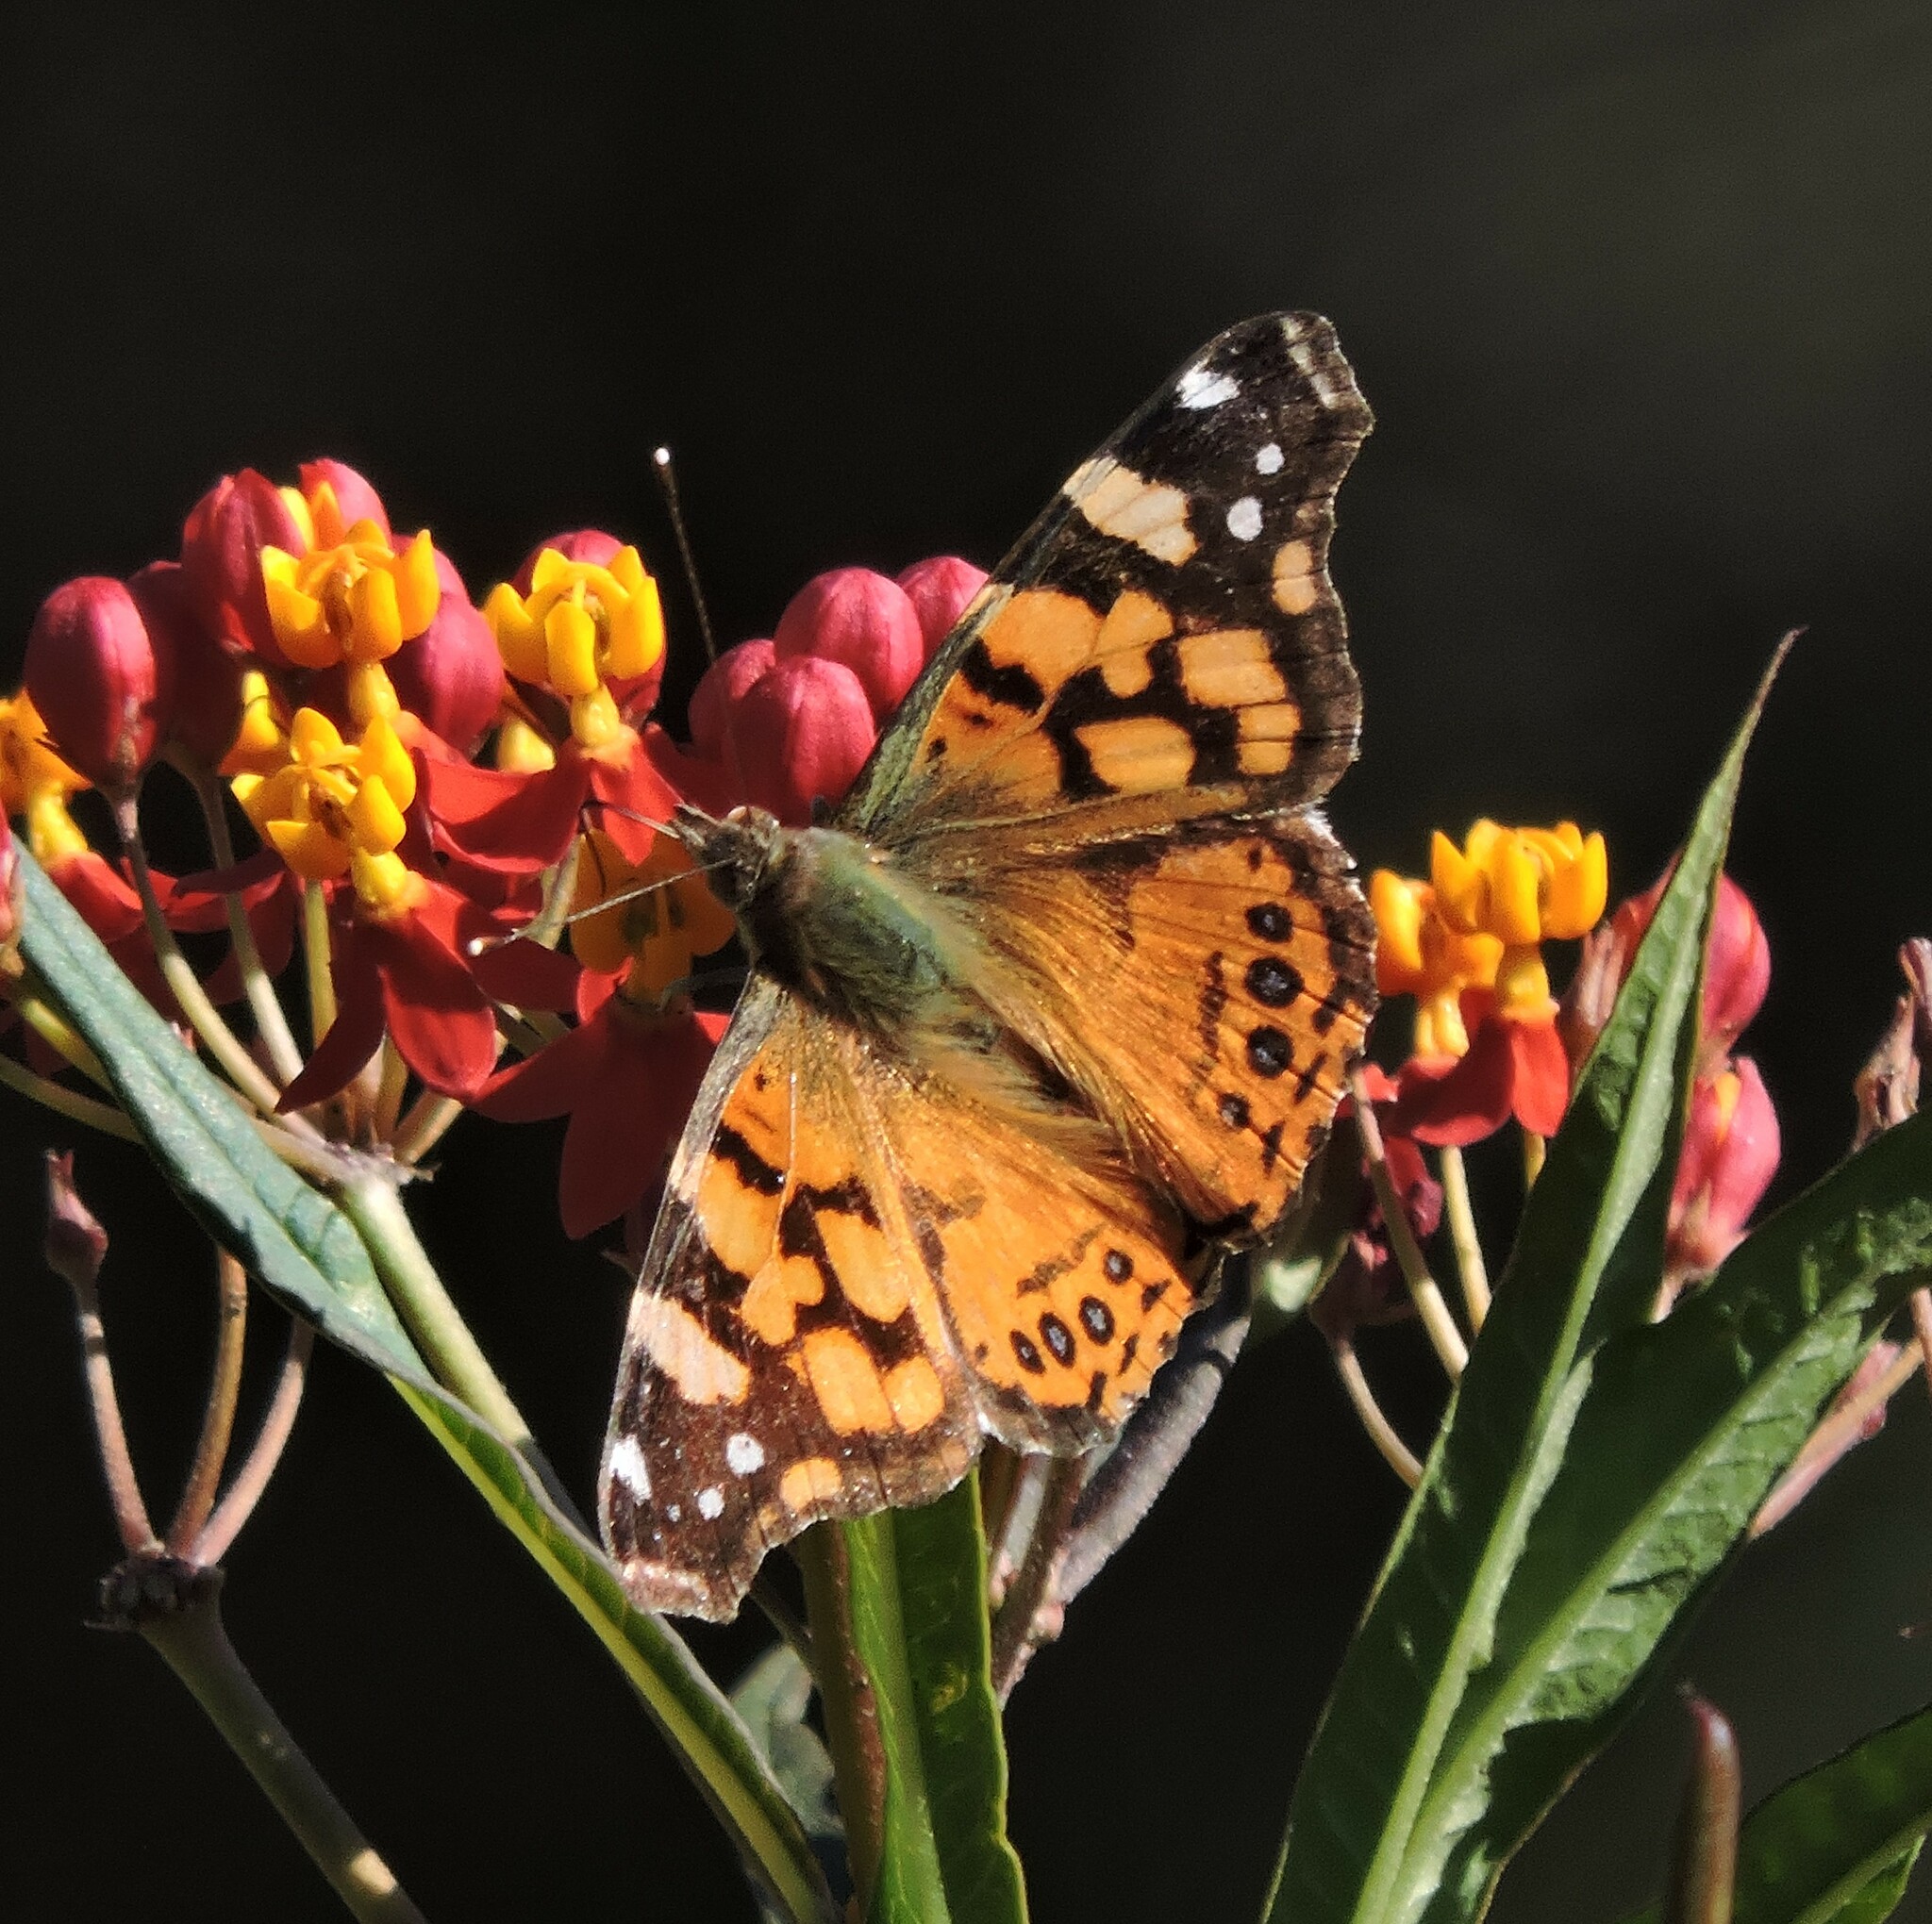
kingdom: Animalia
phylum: Arthropoda
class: Insecta
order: Lepidoptera
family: Nymphalidae
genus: Vanessa
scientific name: Vanessa annabella
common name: West coast lady
